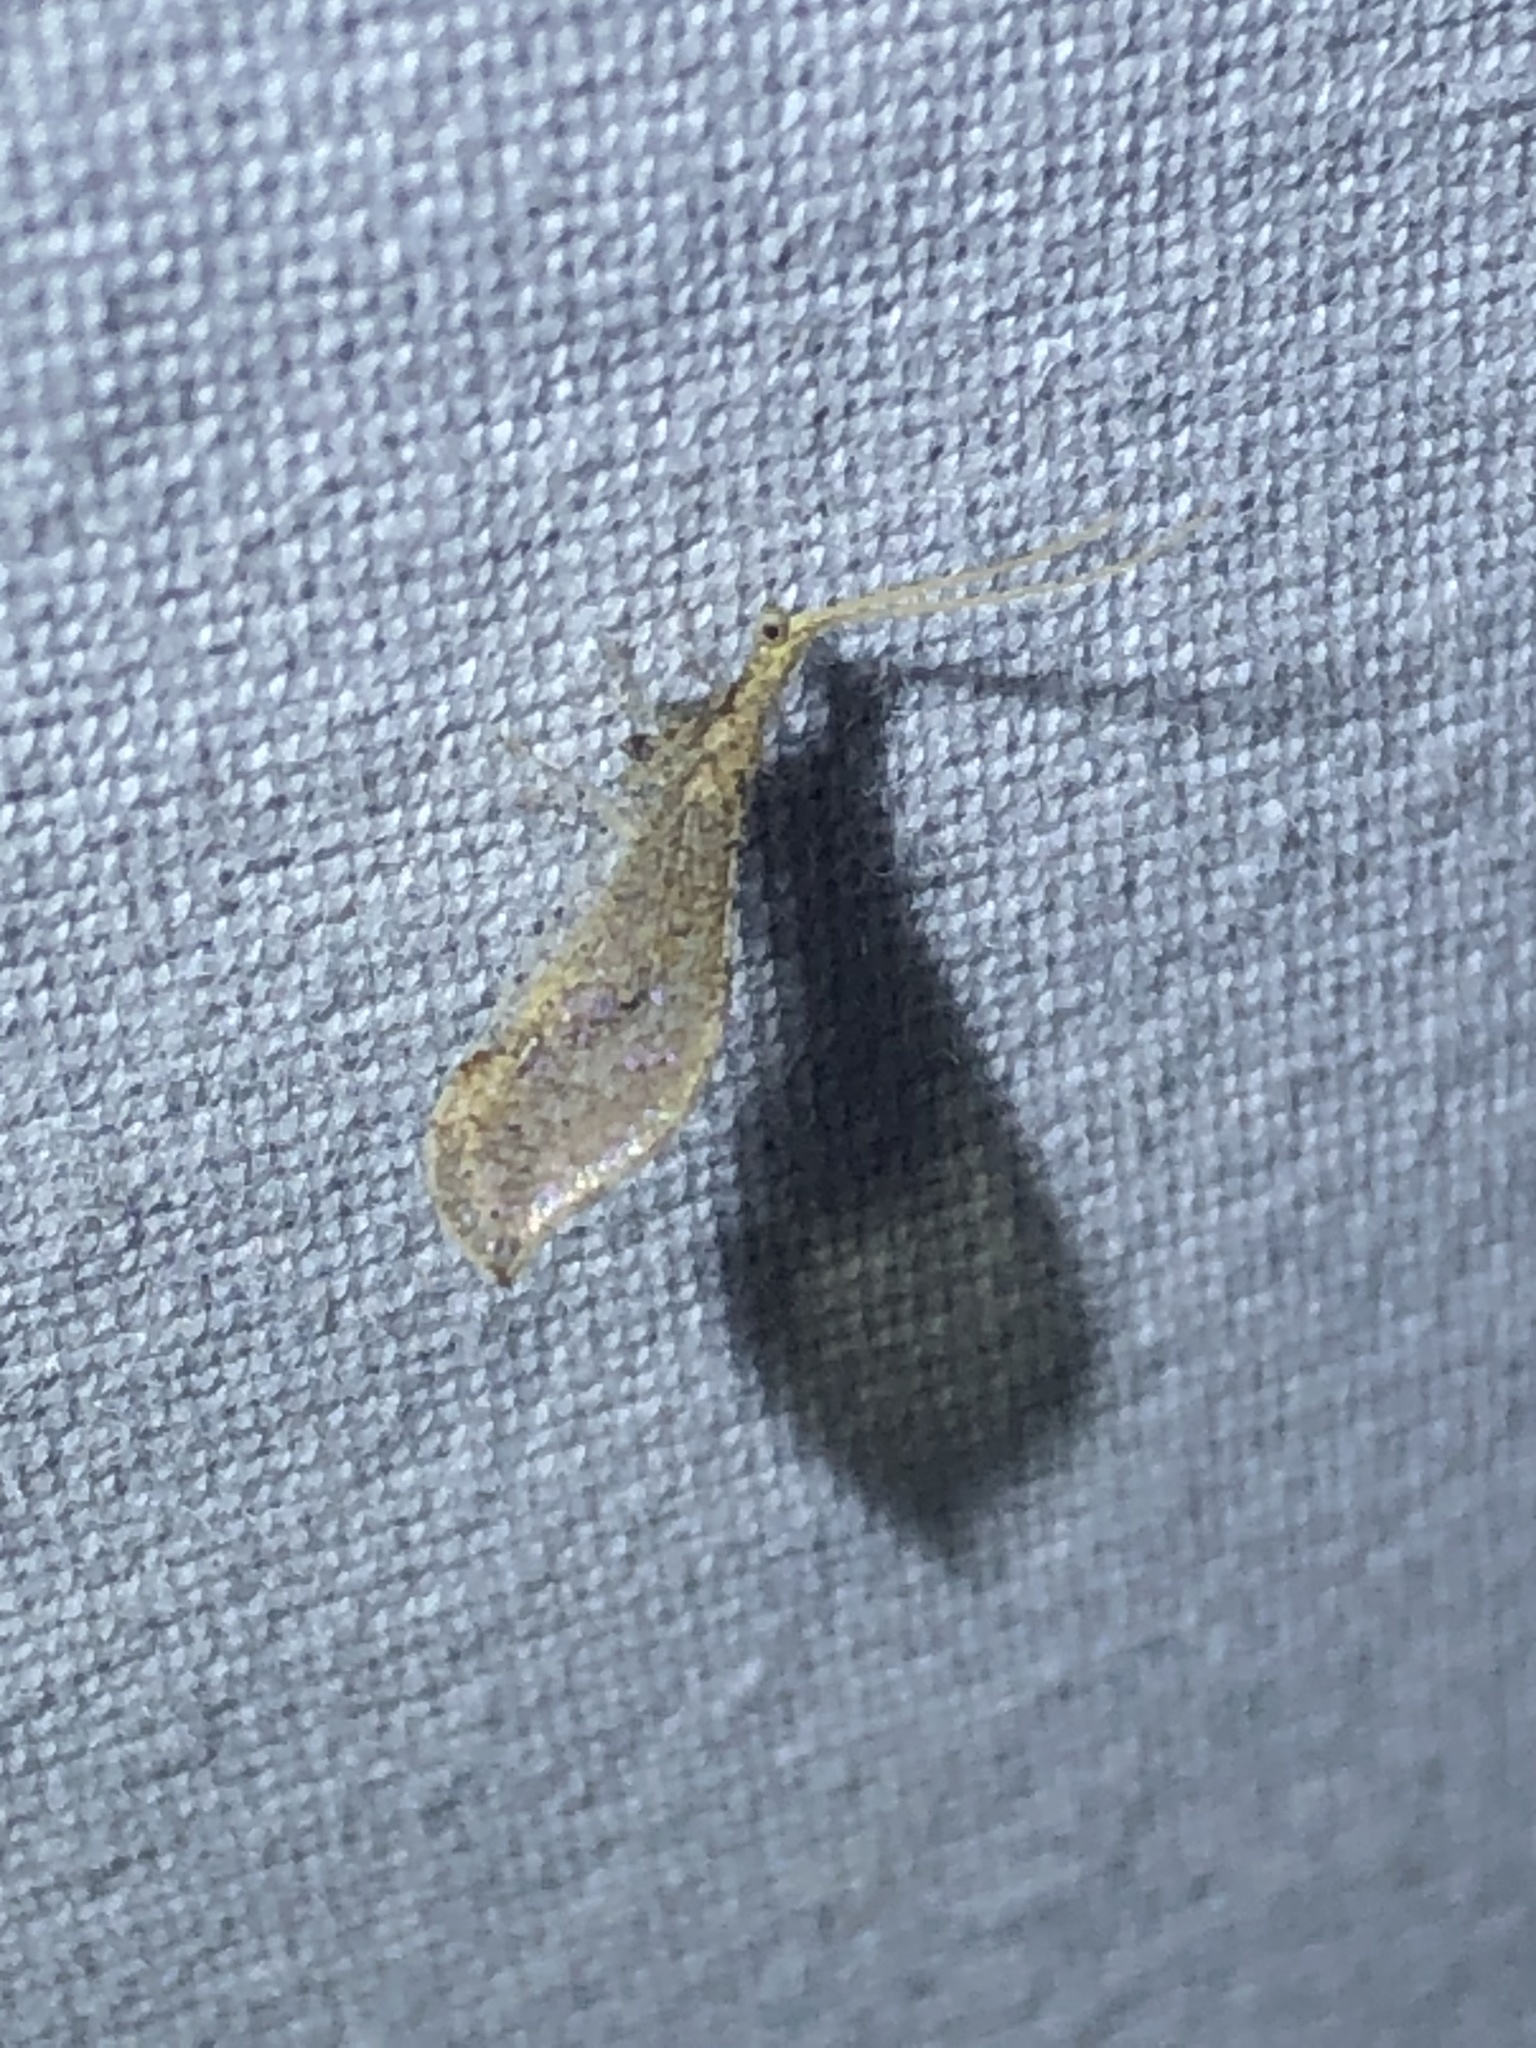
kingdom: Animalia
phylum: Arthropoda
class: Insecta
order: Neuroptera
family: Berothidae
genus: Lomamyia
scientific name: Lomamyia squamosa
